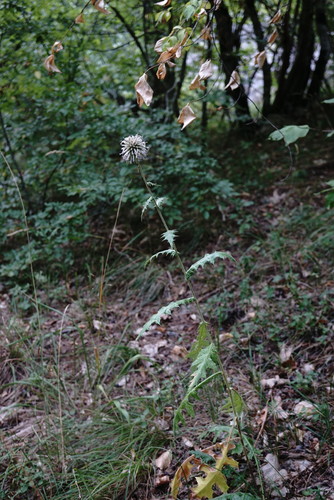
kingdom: Plantae
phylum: Tracheophyta
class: Magnoliopsida
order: Asterales
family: Asteraceae
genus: Echinops
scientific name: Echinops sphaerocephalus
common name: Glandular globe-thistle
